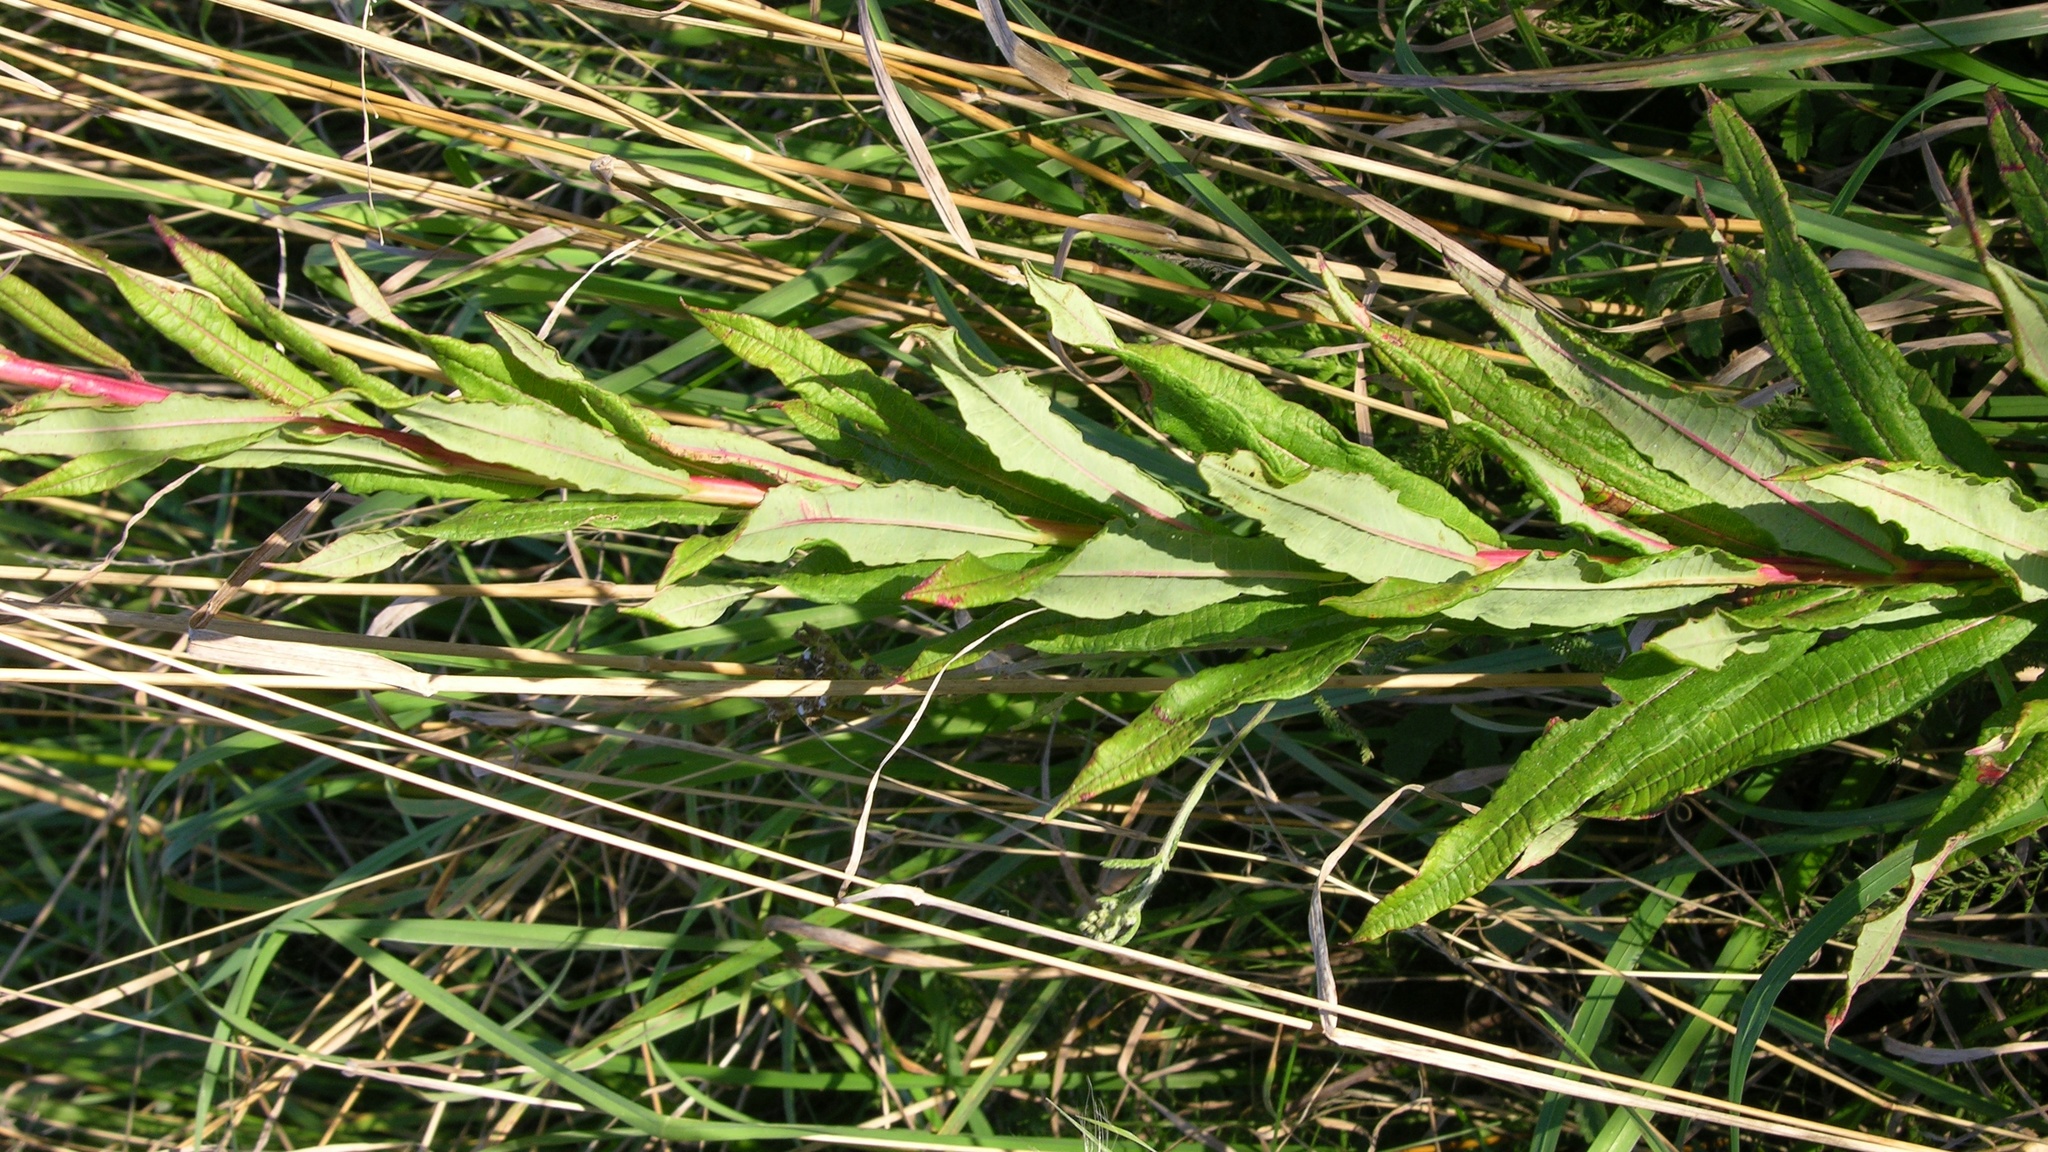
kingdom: Plantae
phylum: Tracheophyta
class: Magnoliopsida
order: Myrtales
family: Onagraceae
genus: Chamaenerion
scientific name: Chamaenerion angustifolium
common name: Fireweed
